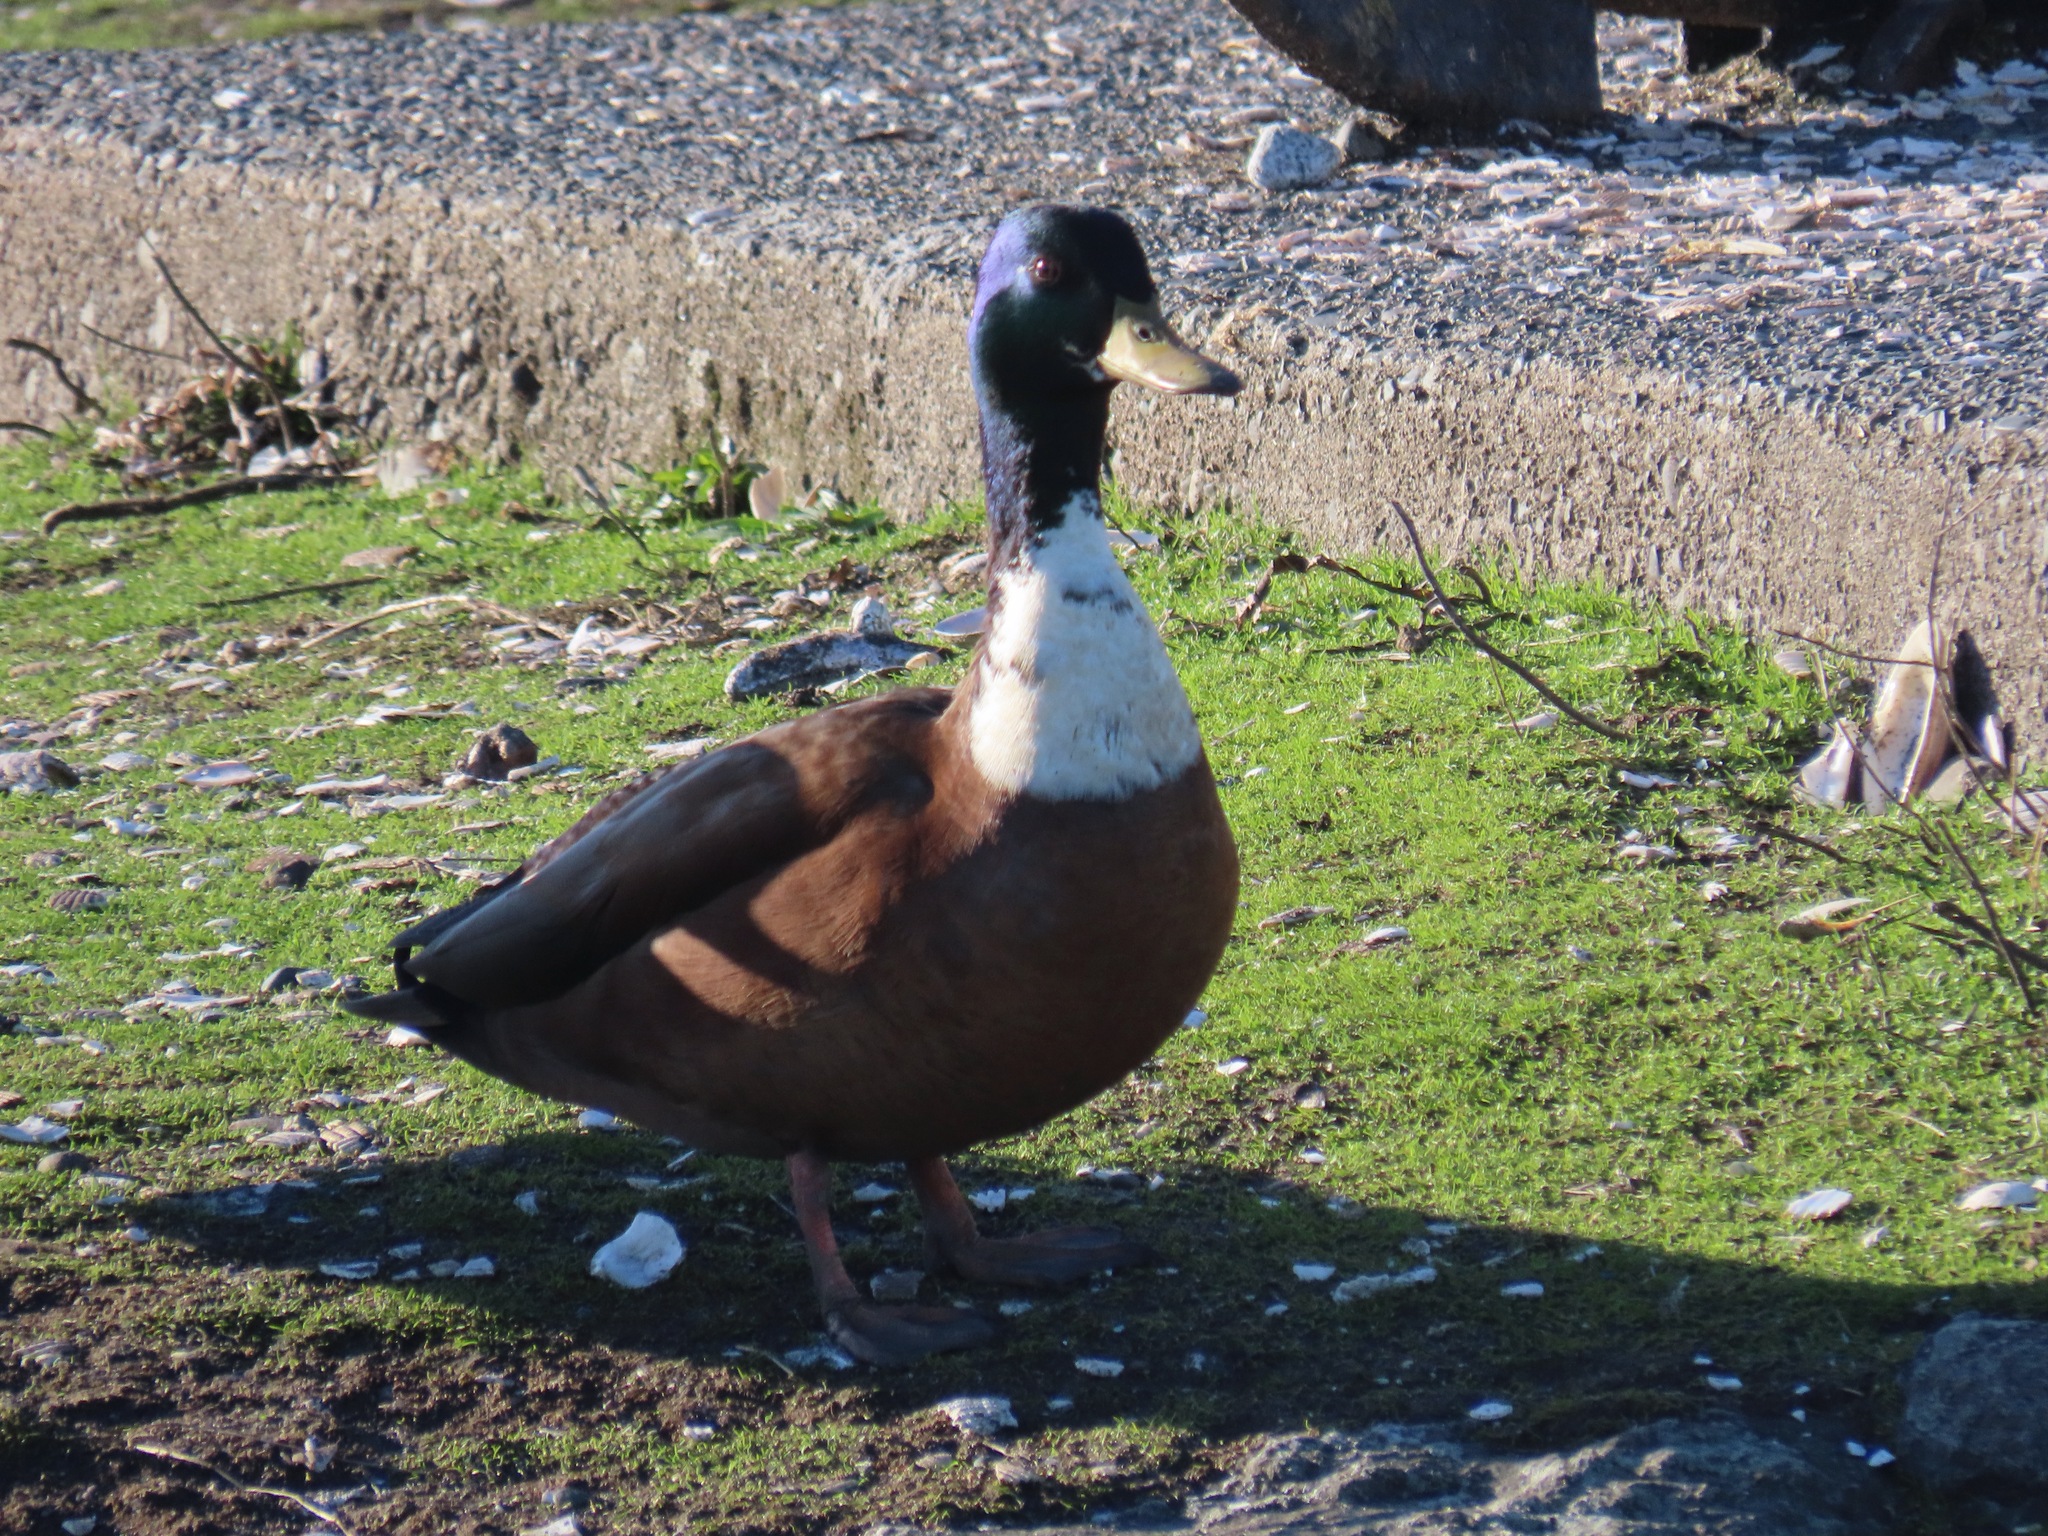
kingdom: Animalia
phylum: Chordata
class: Aves
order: Anseriformes
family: Anatidae
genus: Anas
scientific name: Anas platyrhynchos
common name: Mallard
